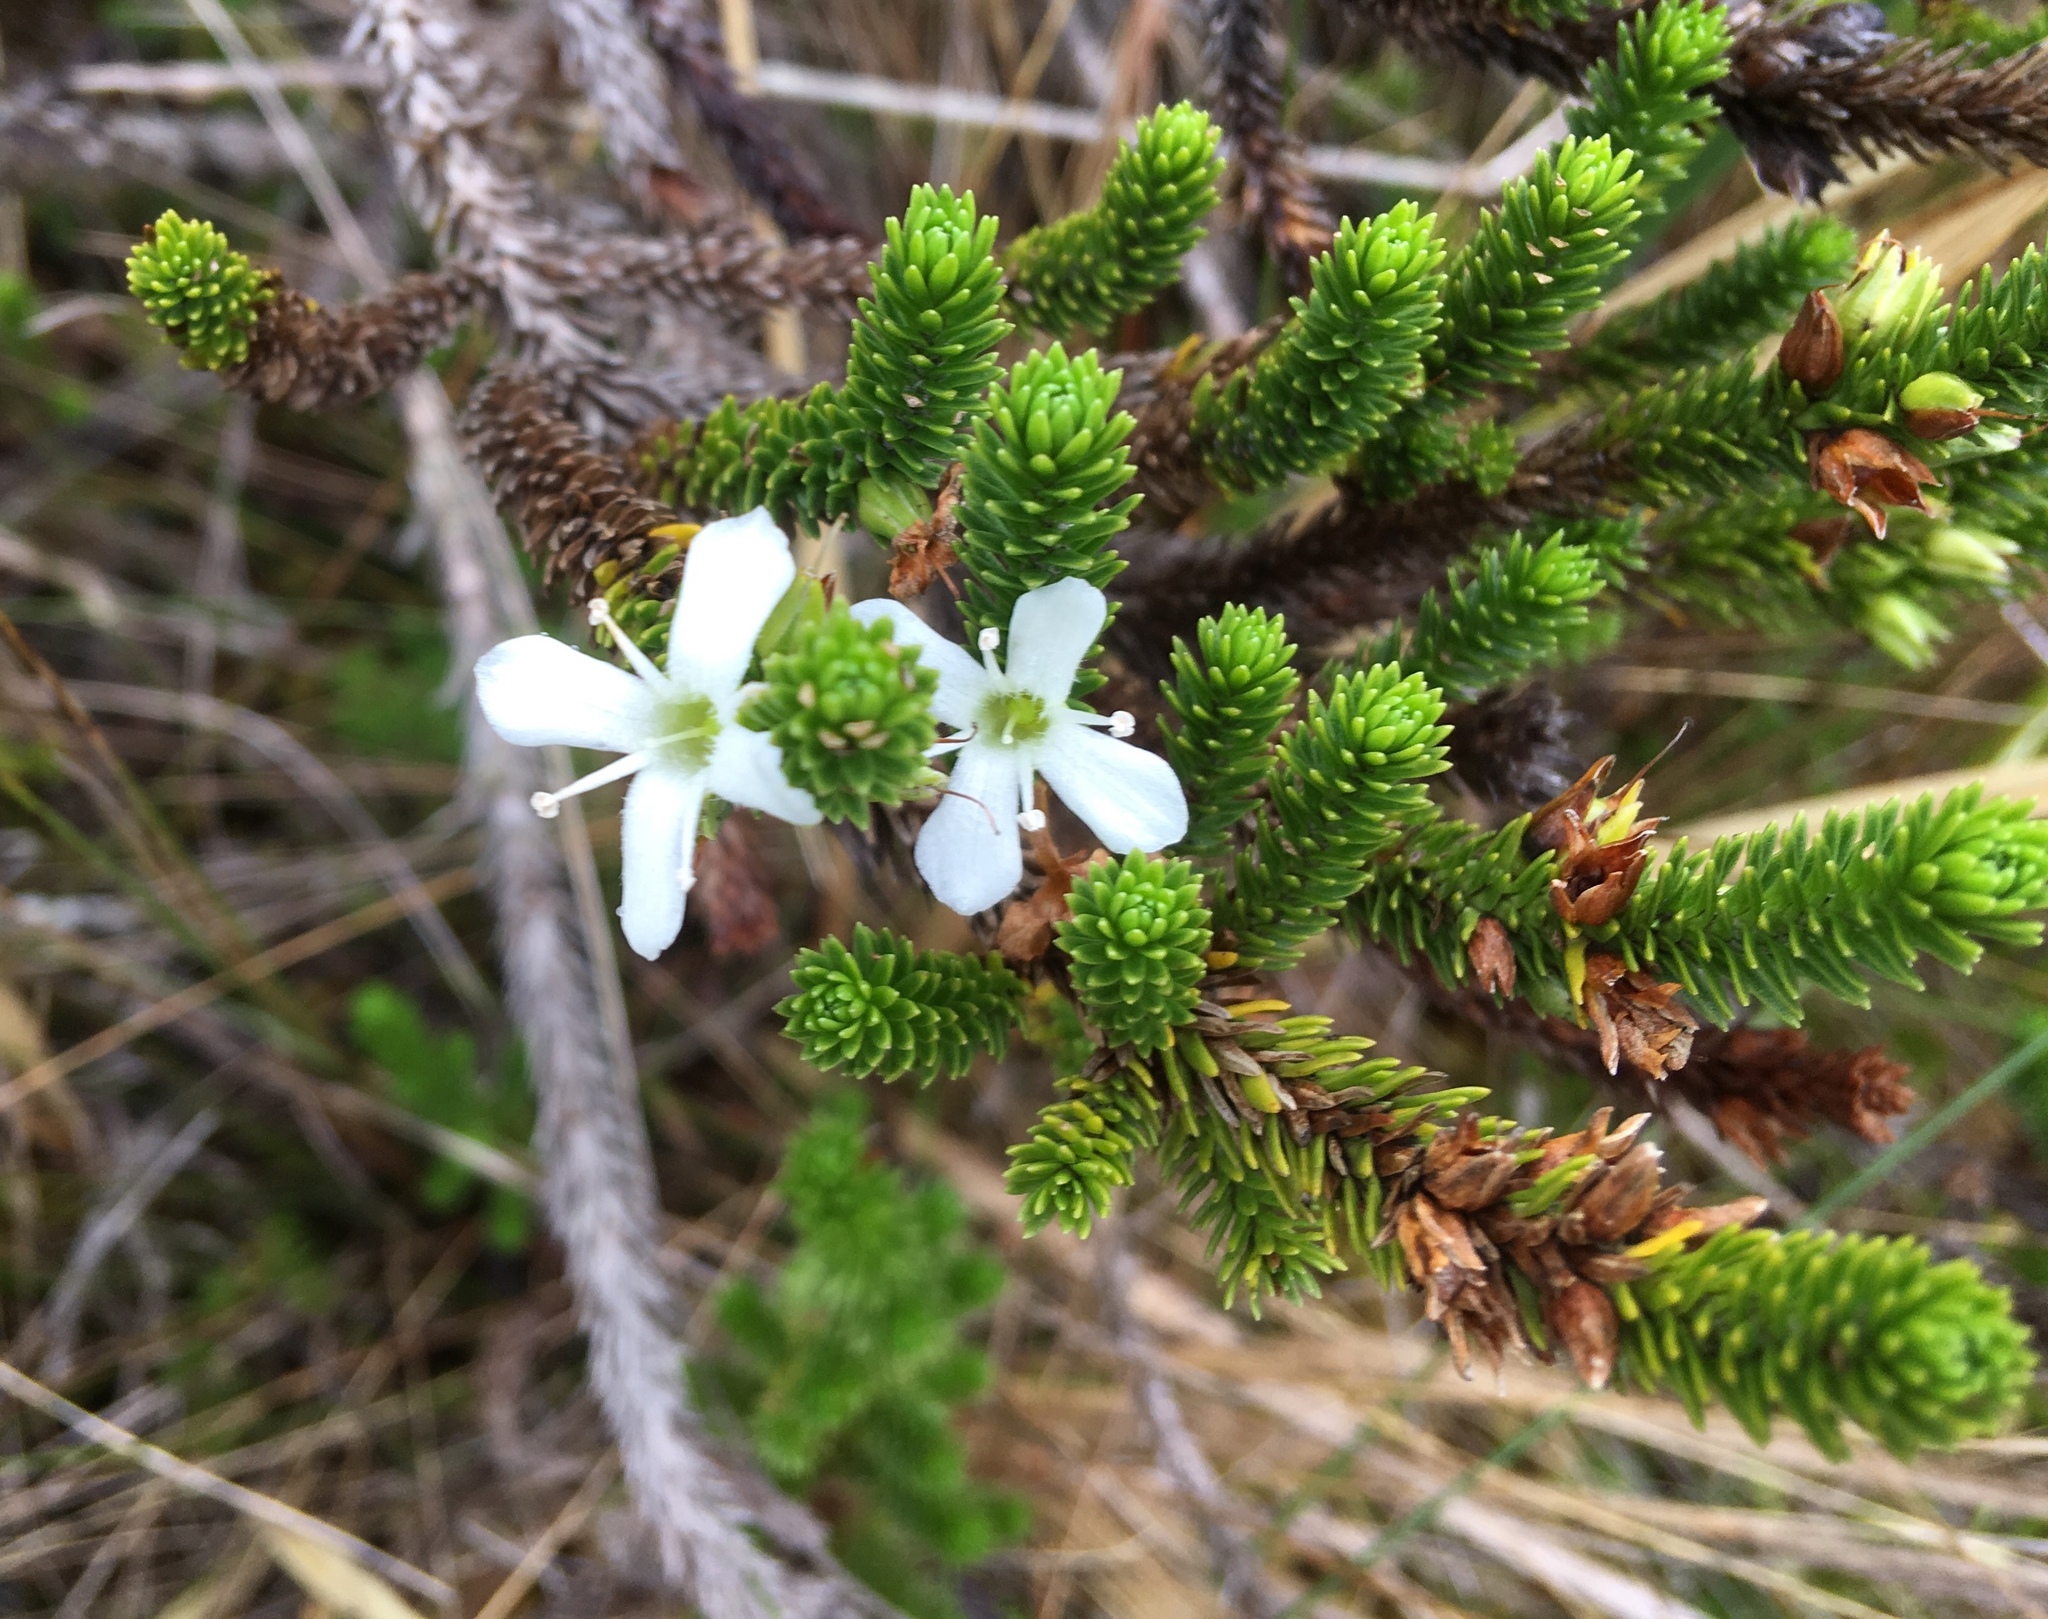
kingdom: Plantae
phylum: Tracheophyta
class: Magnoliopsida
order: Lamiales
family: Plantaginaceae
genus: Aragoa
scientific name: Aragoa abietina
